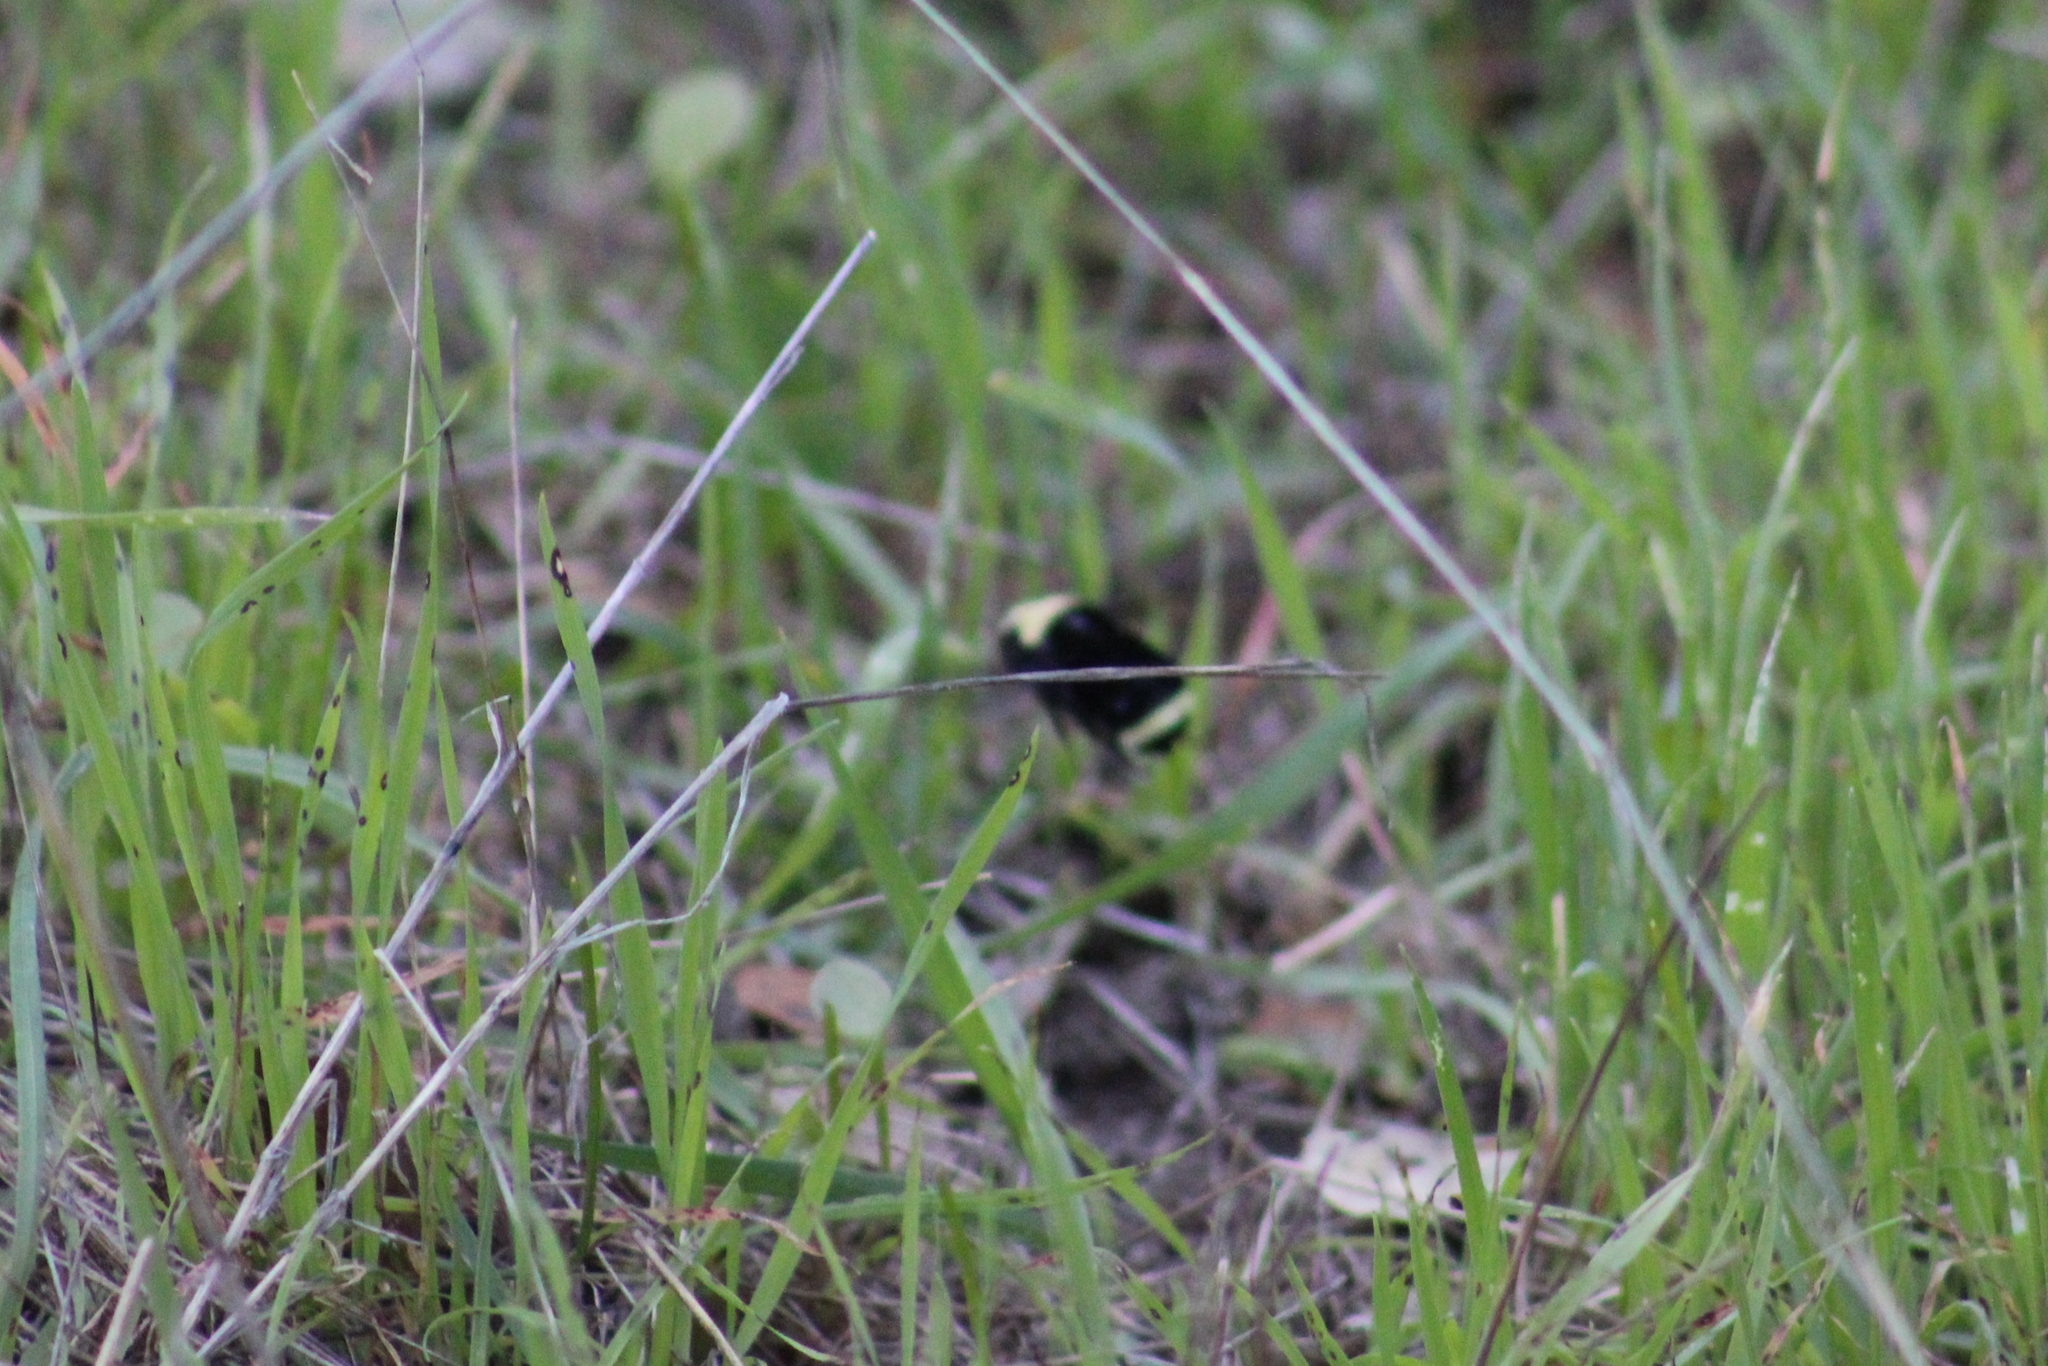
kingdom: Animalia
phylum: Arthropoda
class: Insecta
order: Hymenoptera
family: Apidae
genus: Bombus
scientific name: Bombus vosnesenskii
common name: Vosnesensky bumble bee
